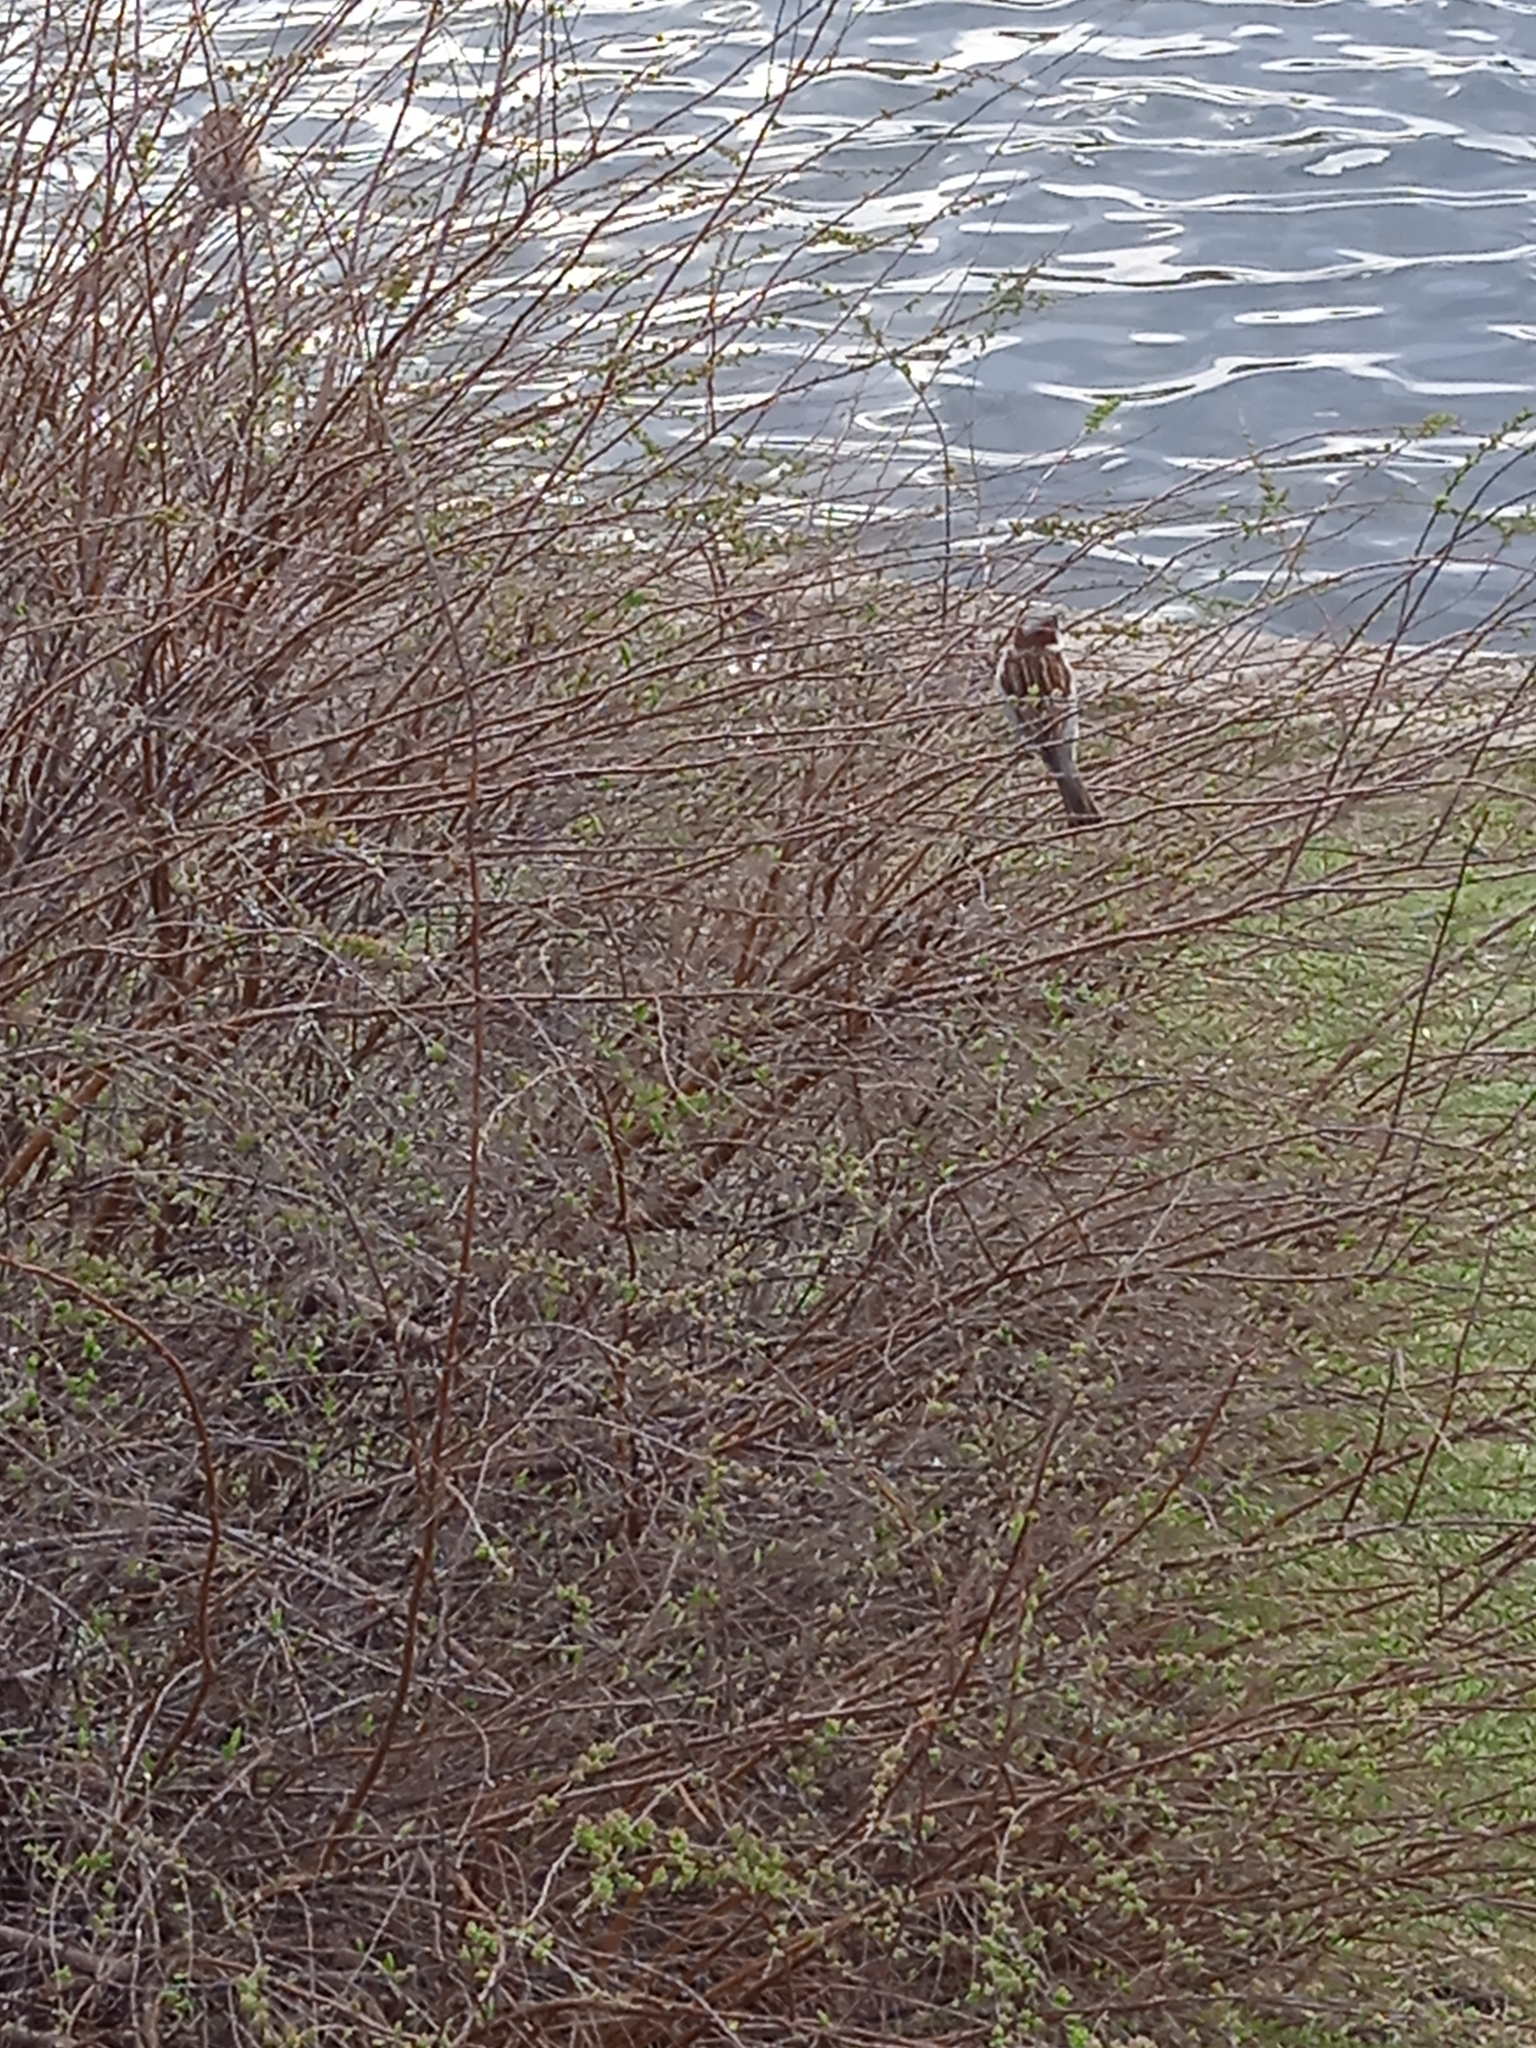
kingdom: Animalia
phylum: Chordata
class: Aves
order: Passeriformes
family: Passeridae
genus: Passer
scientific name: Passer domesticus
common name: House sparrow
